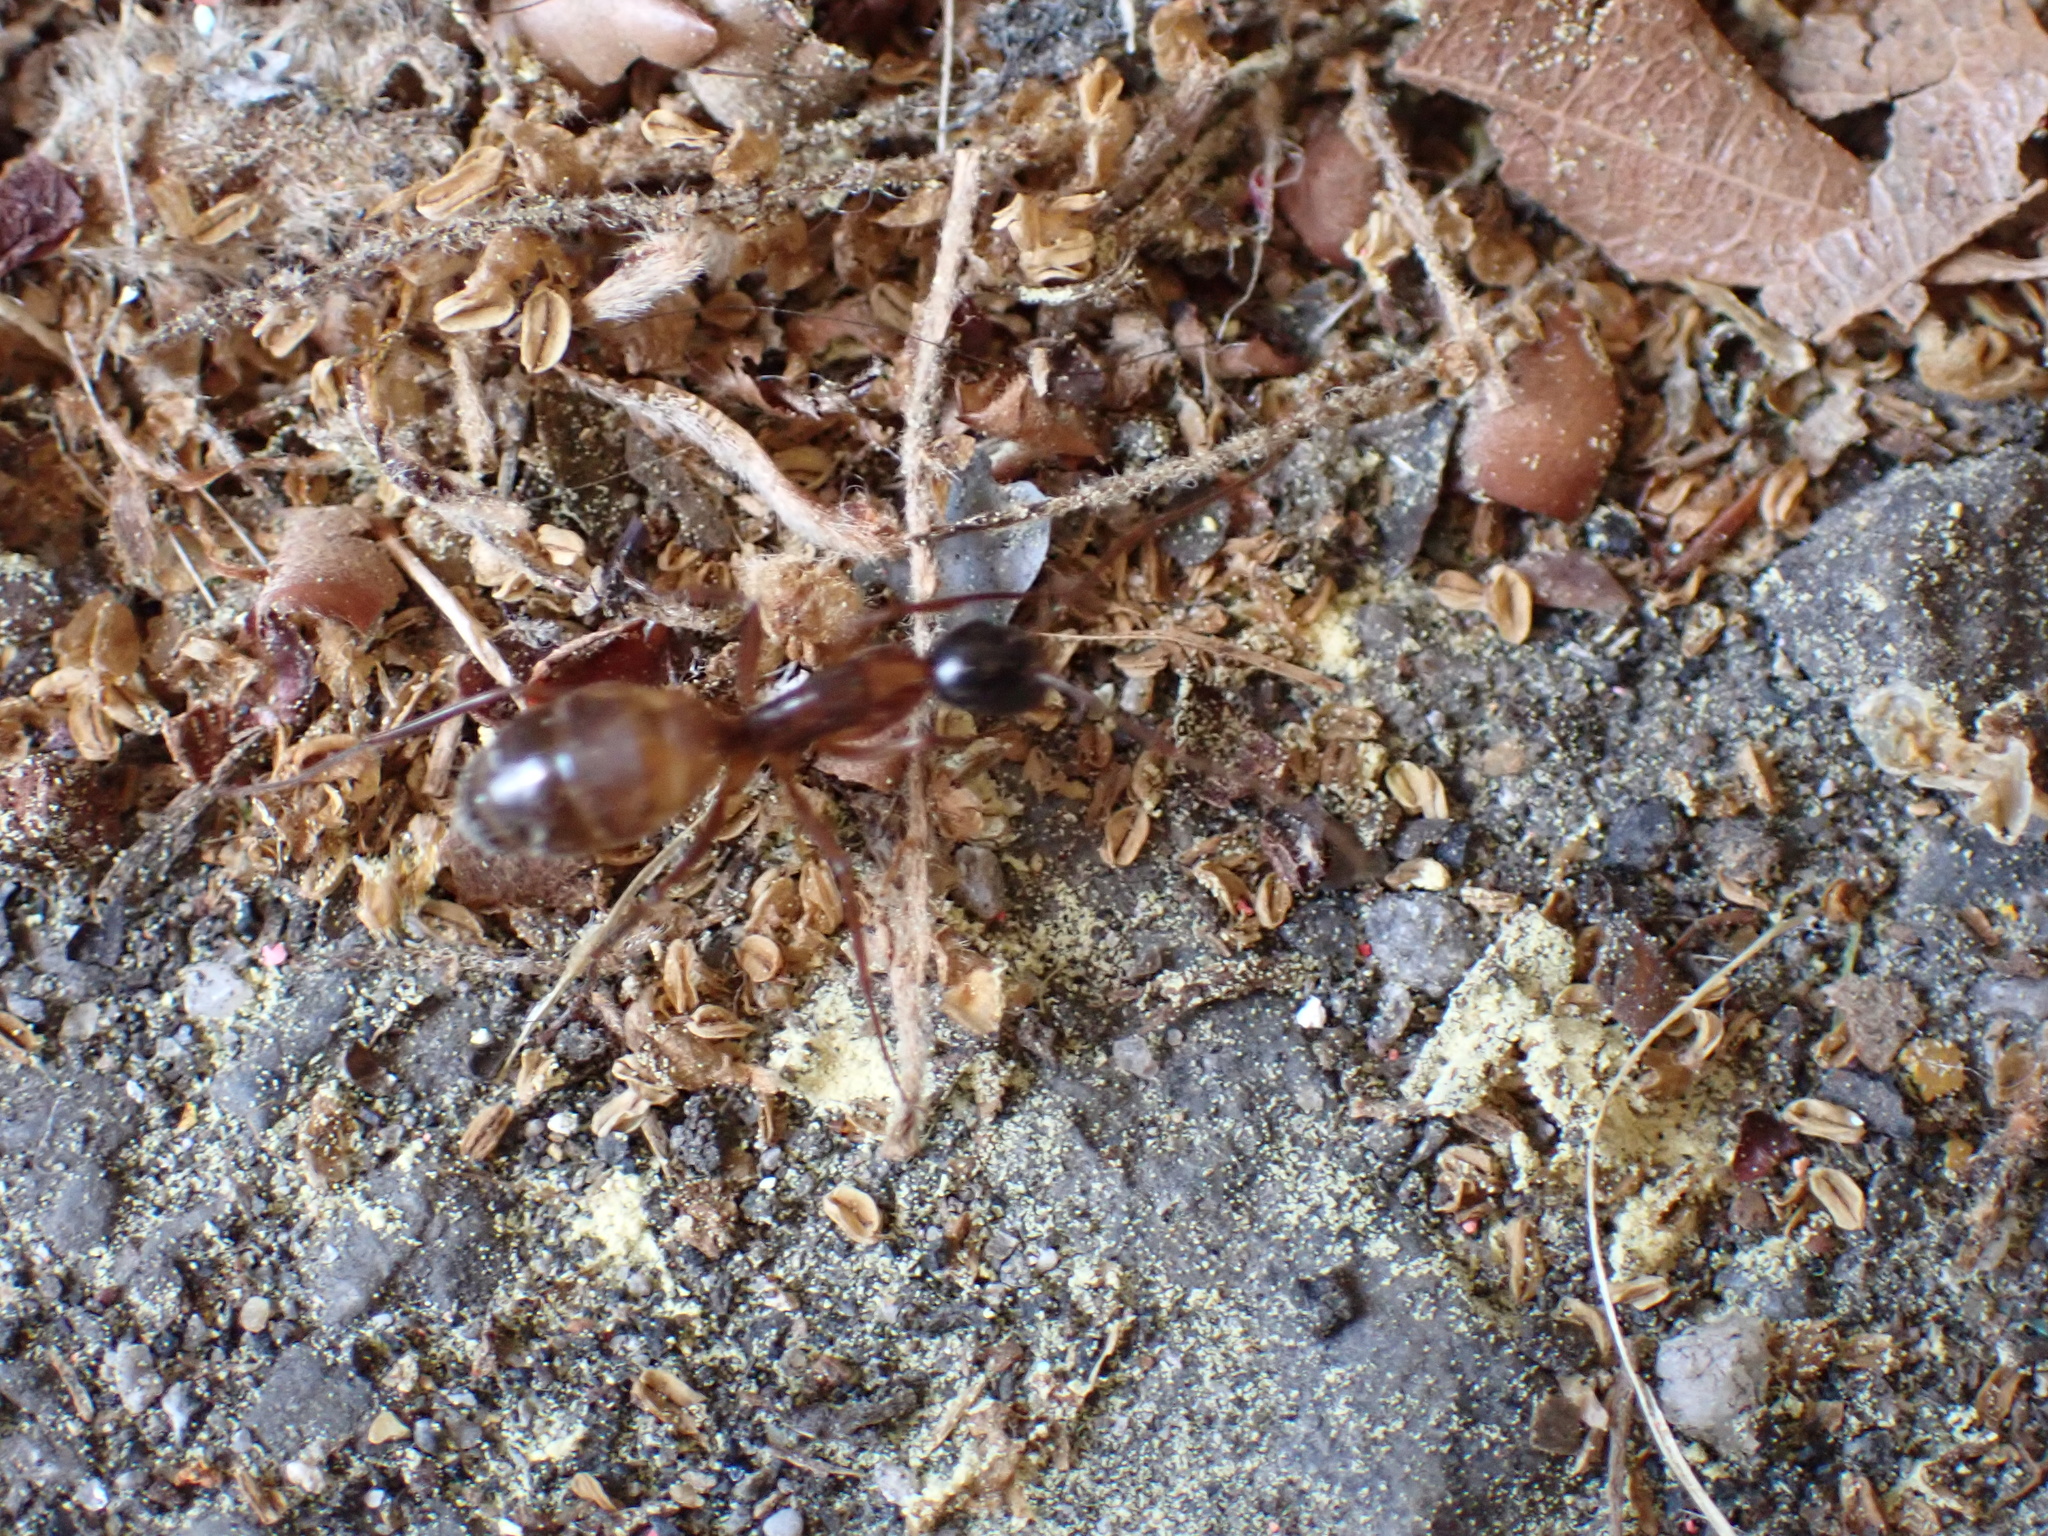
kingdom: Animalia
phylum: Arthropoda
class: Insecta
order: Hymenoptera
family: Formicidae
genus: Camponotus
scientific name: Camponotus americanus
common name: American carpenter ant
